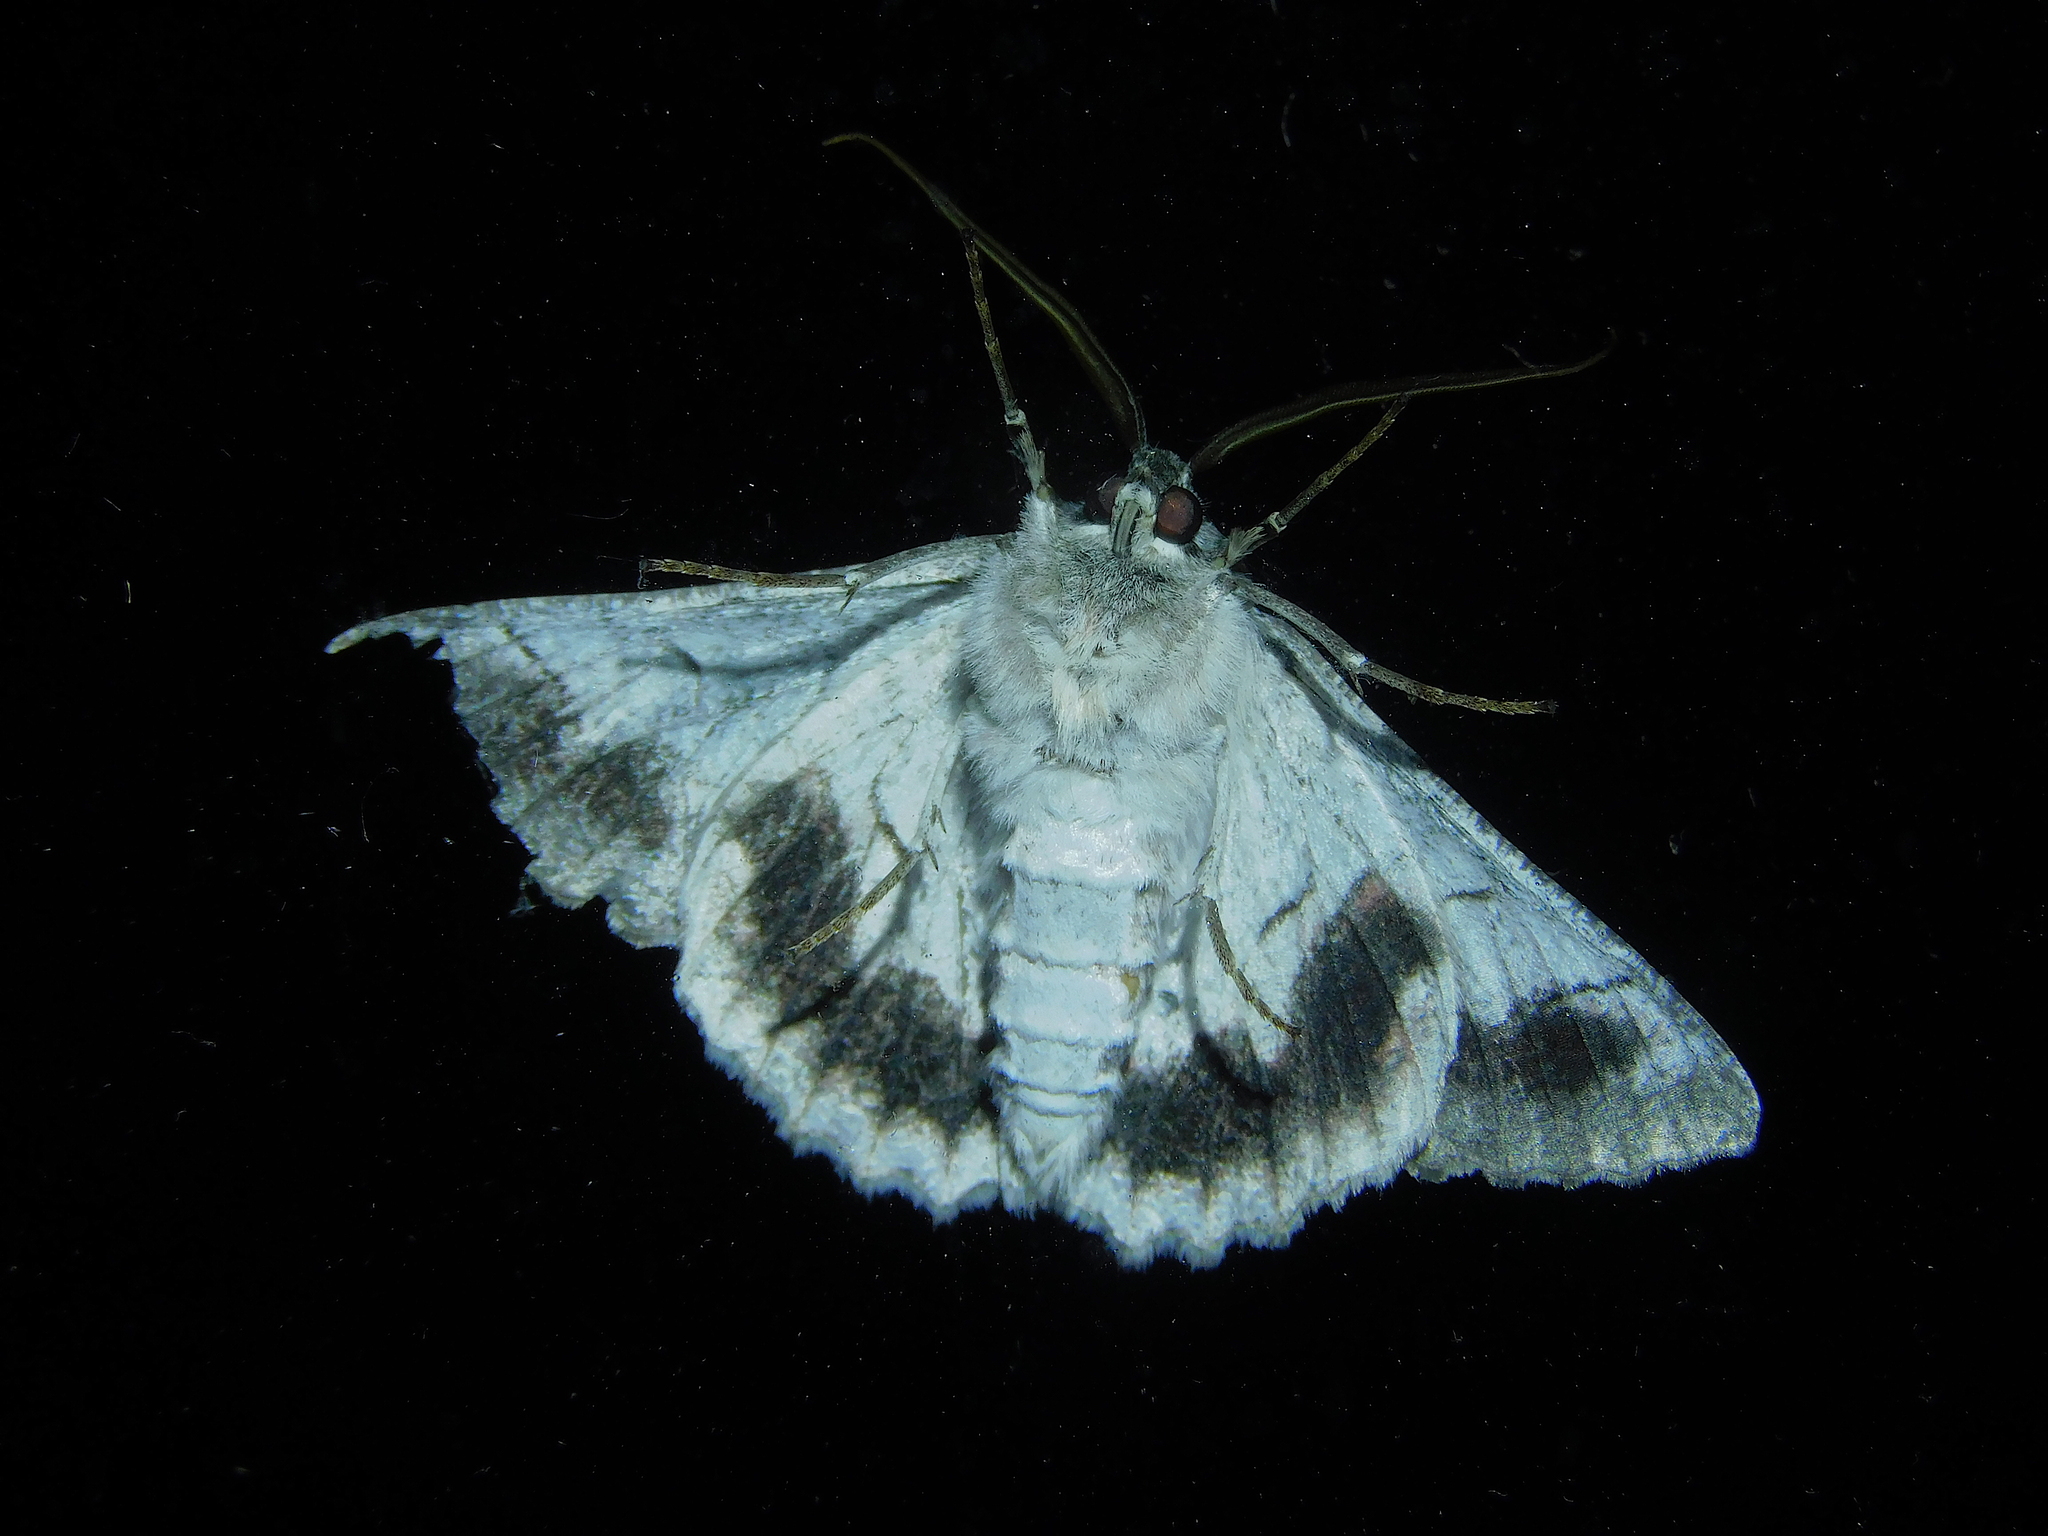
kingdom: Animalia
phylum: Arthropoda
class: Insecta
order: Lepidoptera
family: Geometridae
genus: Hypobapta
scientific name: Hypobapta tachyhalotaria
